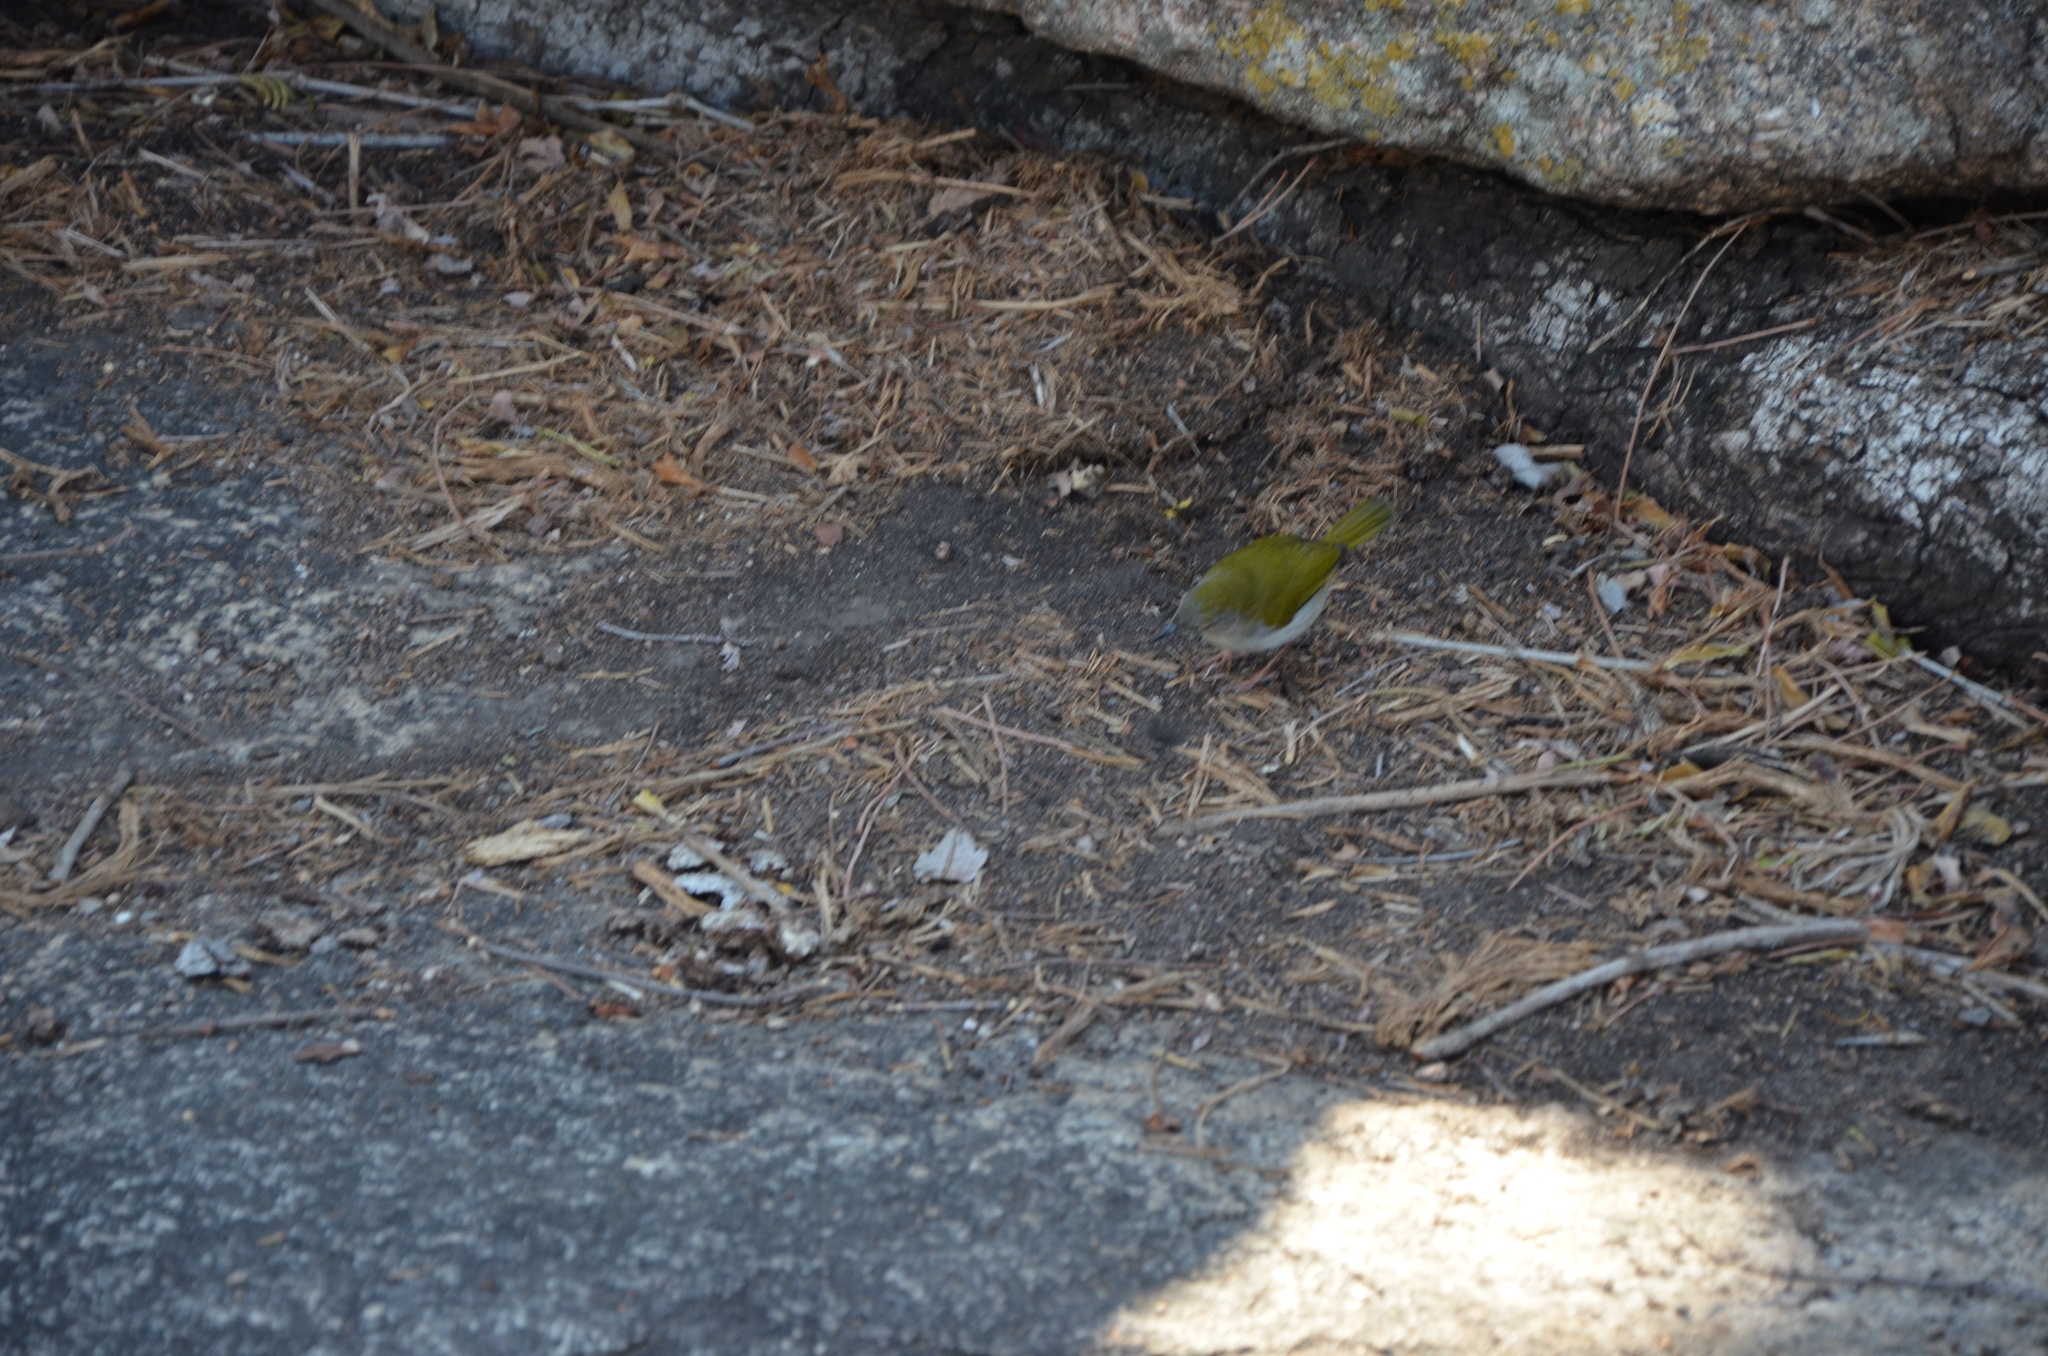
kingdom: Animalia
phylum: Chordata
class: Aves
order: Passeriformes
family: Cisticolidae
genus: Camaroptera
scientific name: Camaroptera brachyura
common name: Green-backed camaroptera
